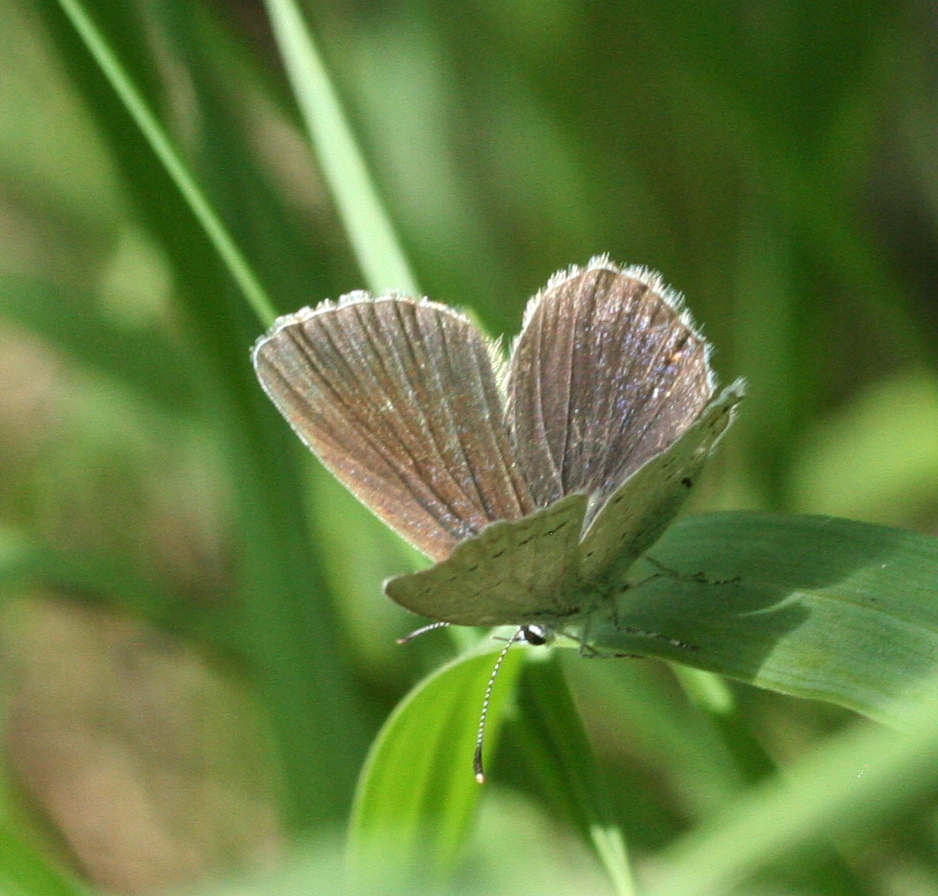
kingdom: Animalia
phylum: Arthropoda
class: Insecta
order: Lepidoptera
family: Lycaenidae
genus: Elkalyce
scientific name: Elkalyce argiades
